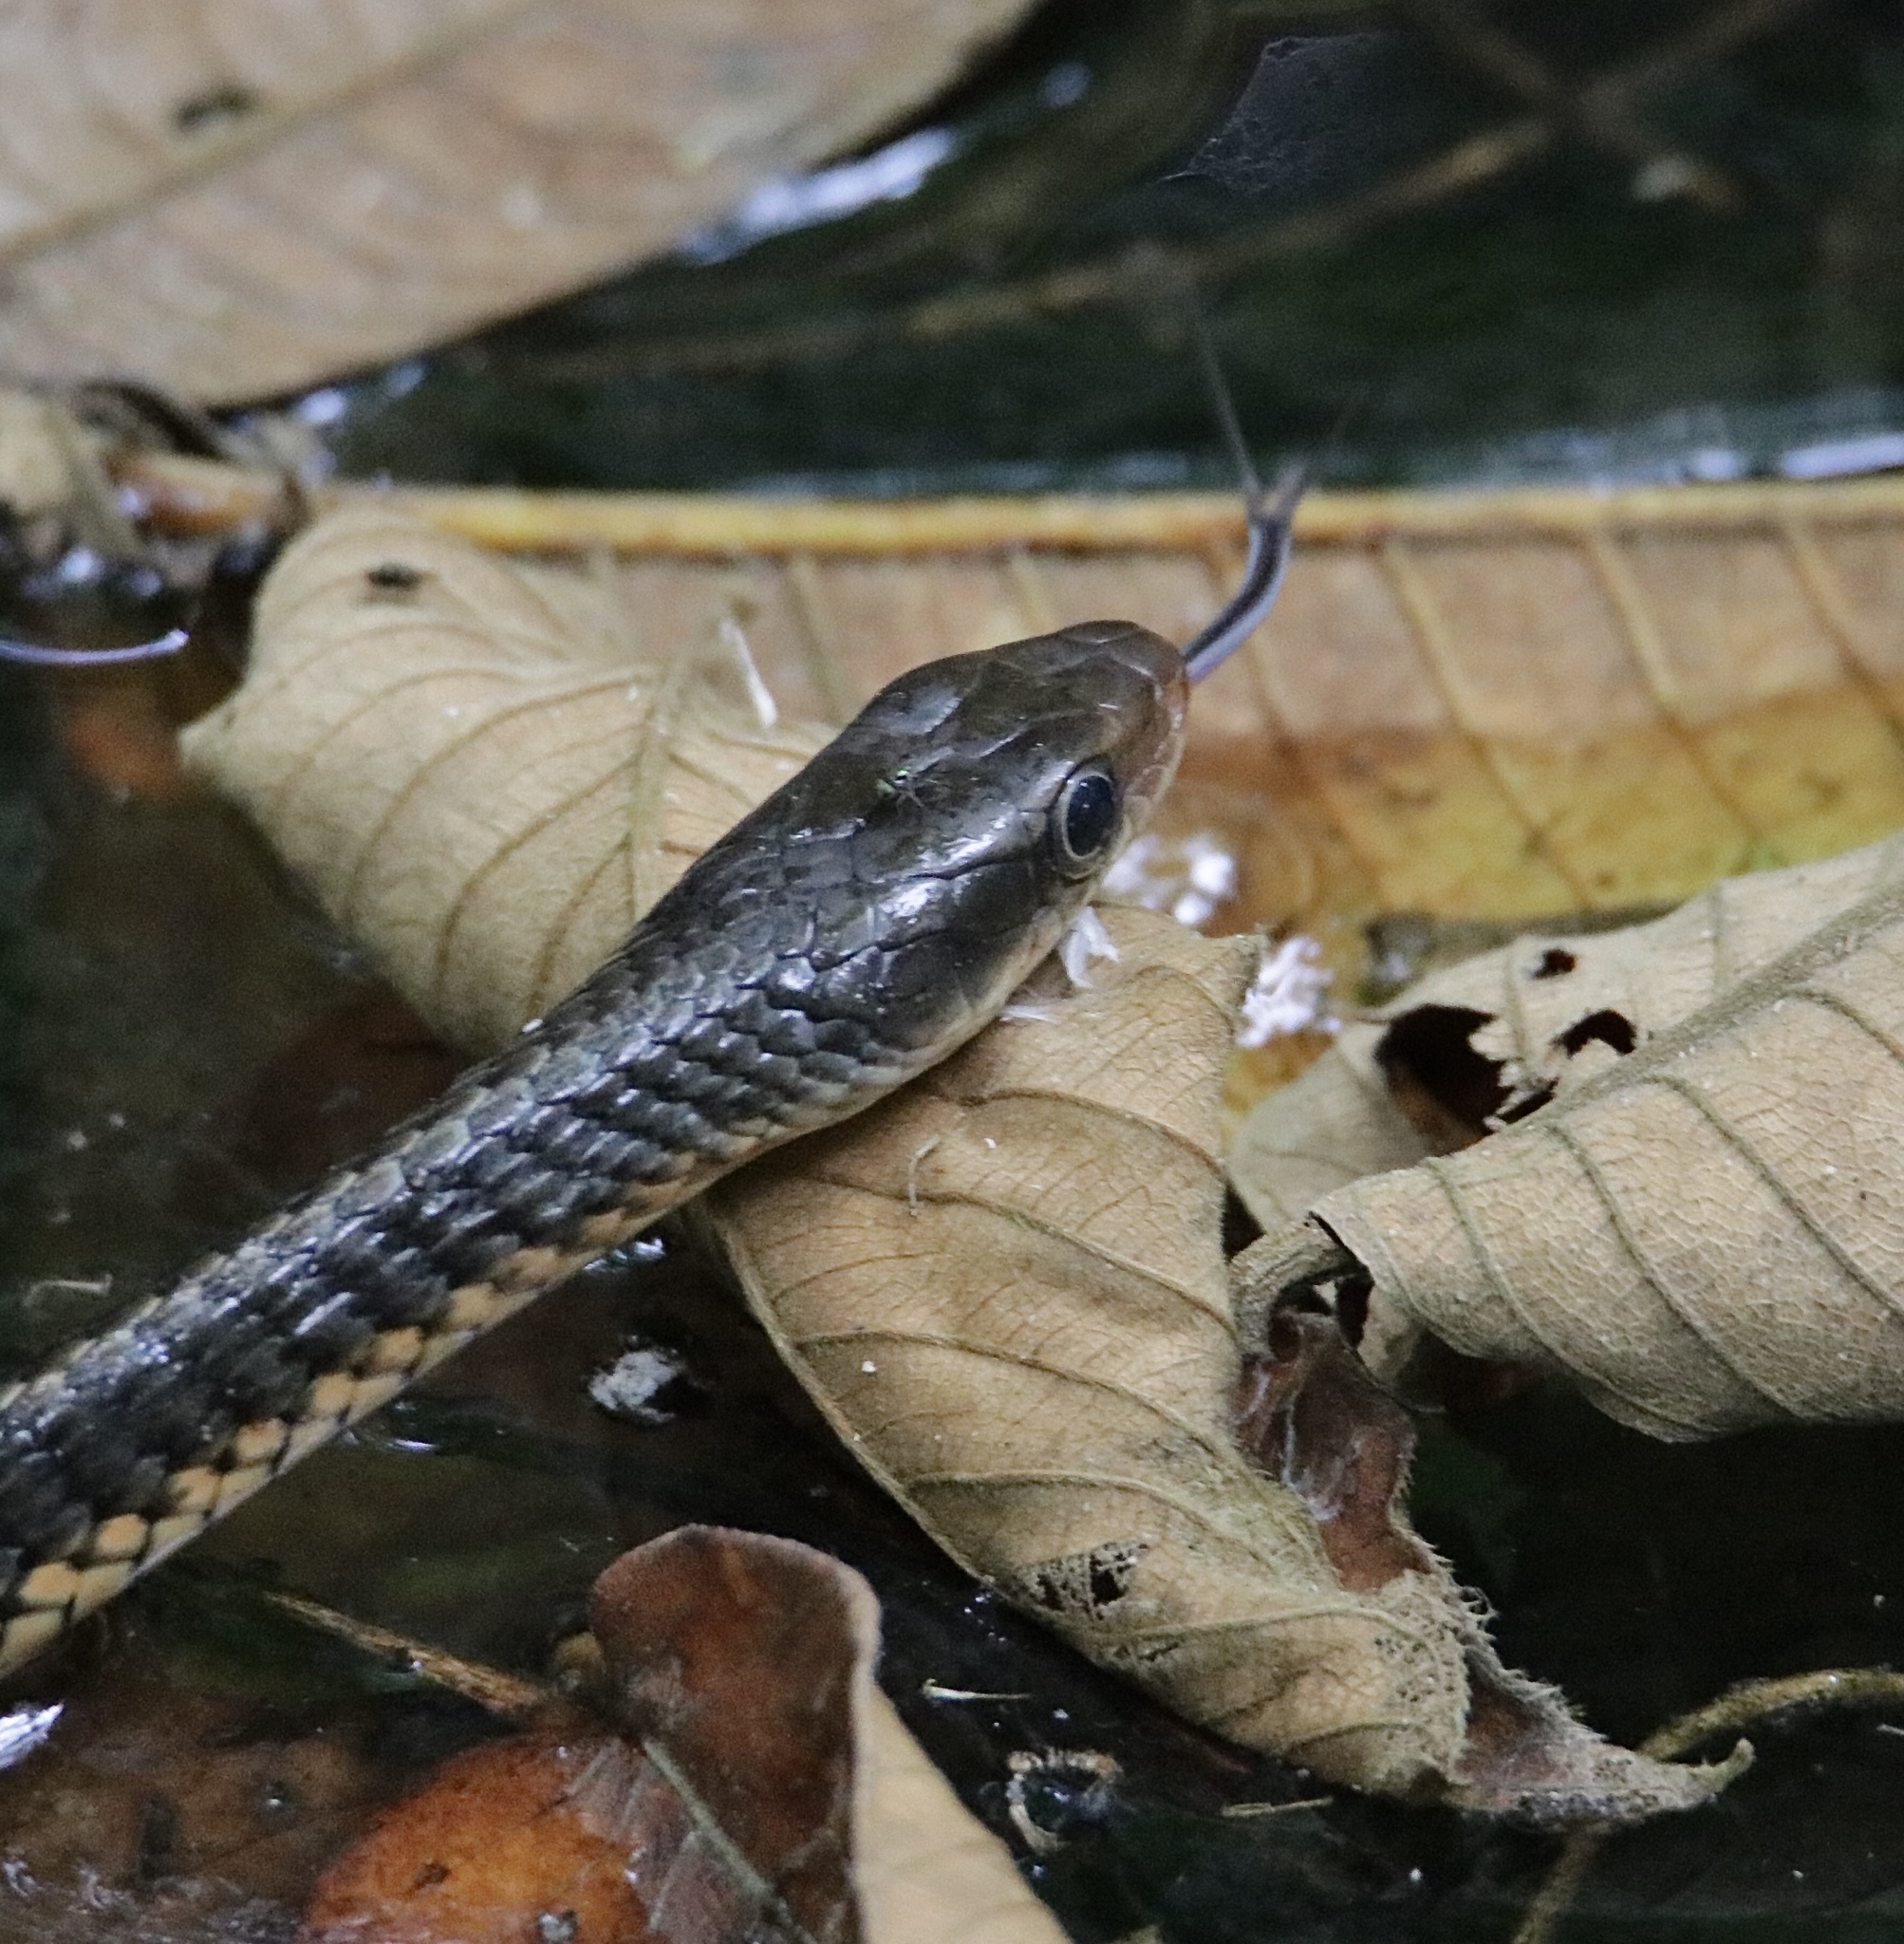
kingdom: Animalia
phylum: Chordata
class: Squamata
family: Colubridae
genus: Chironius
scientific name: Chironius flavopictus
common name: Sipo
